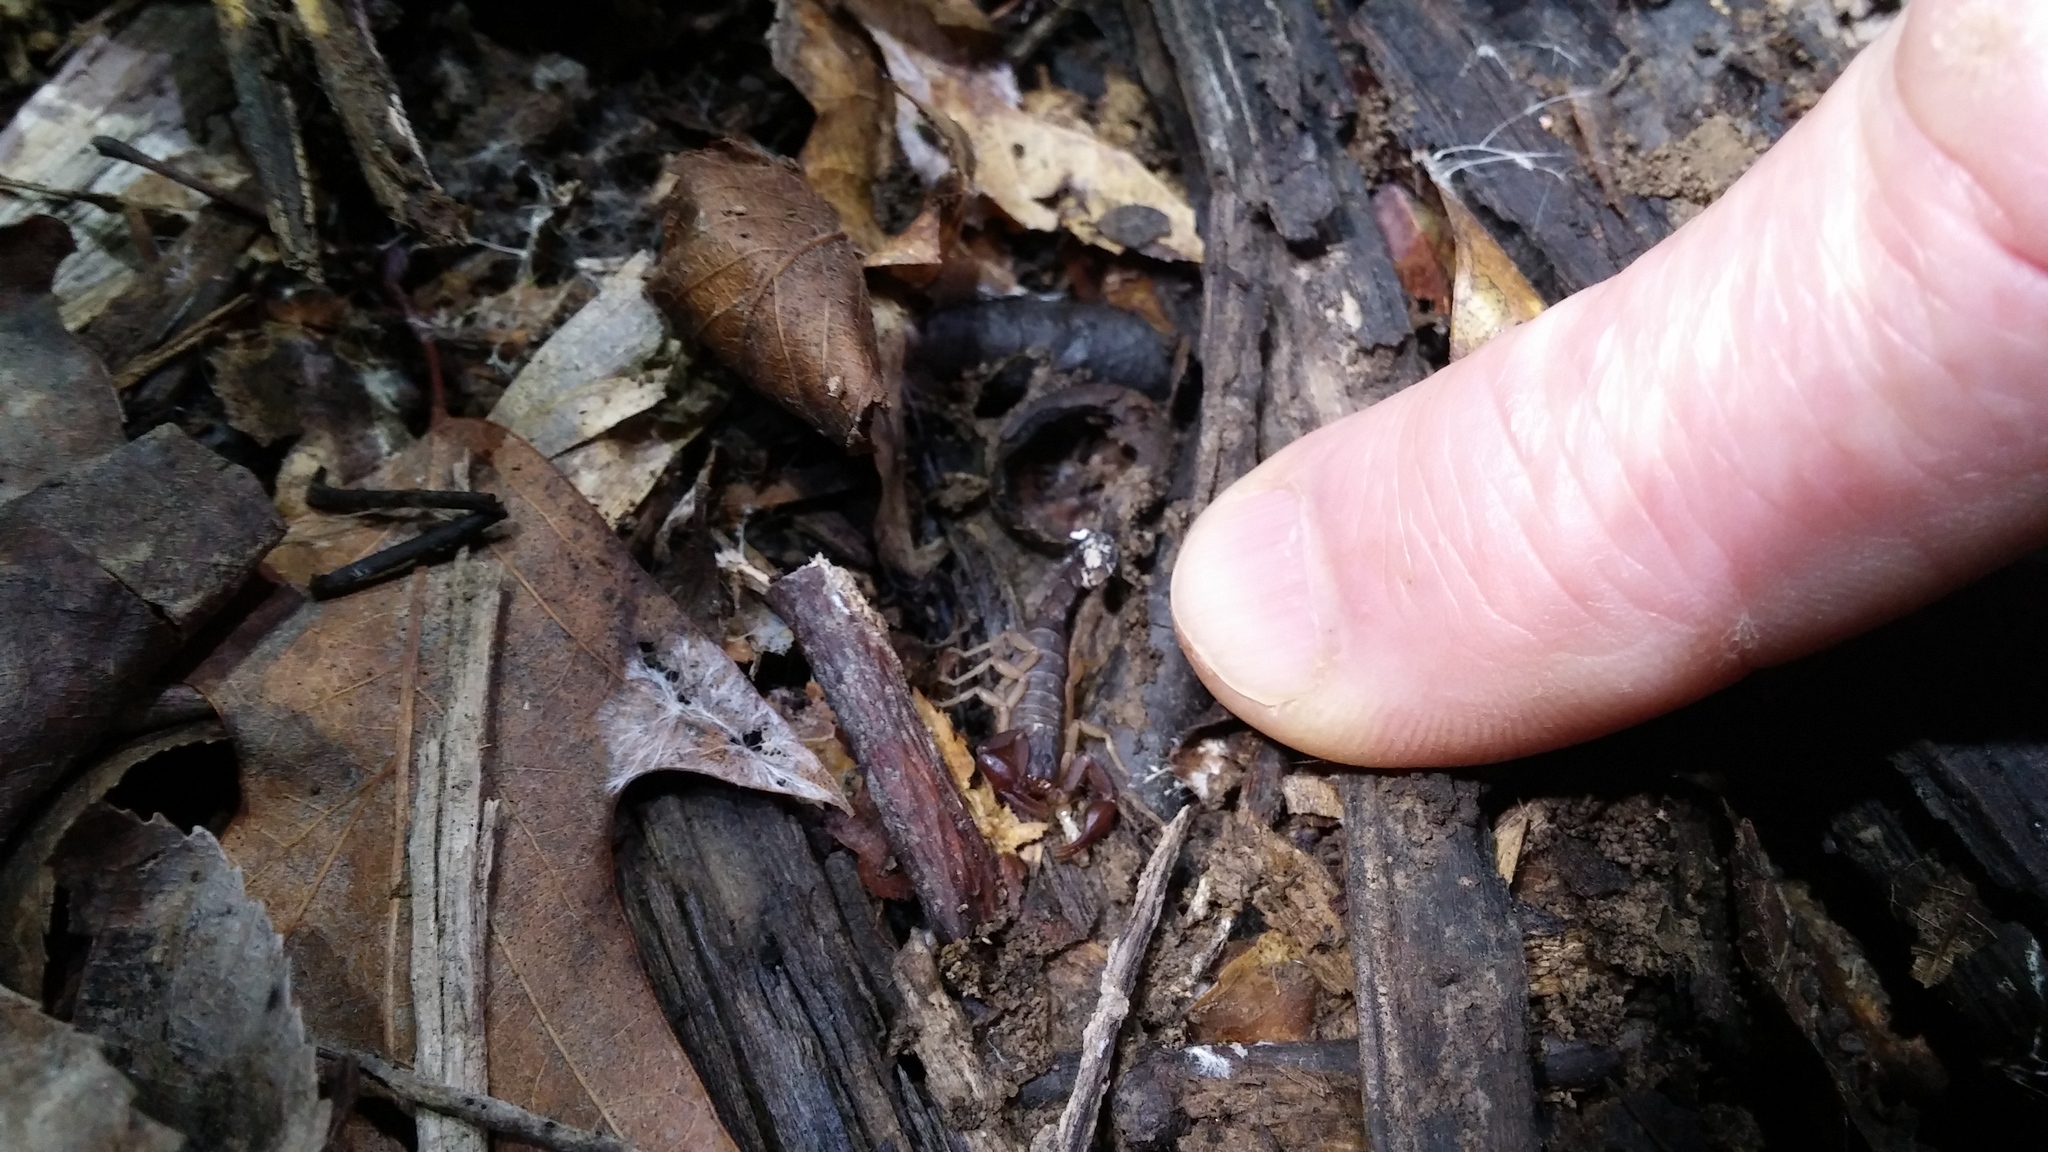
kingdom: Animalia
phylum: Arthropoda
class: Arachnida
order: Scorpiones
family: Vaejovidae
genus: Vaejovis
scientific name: Vaejovis carolinianus
